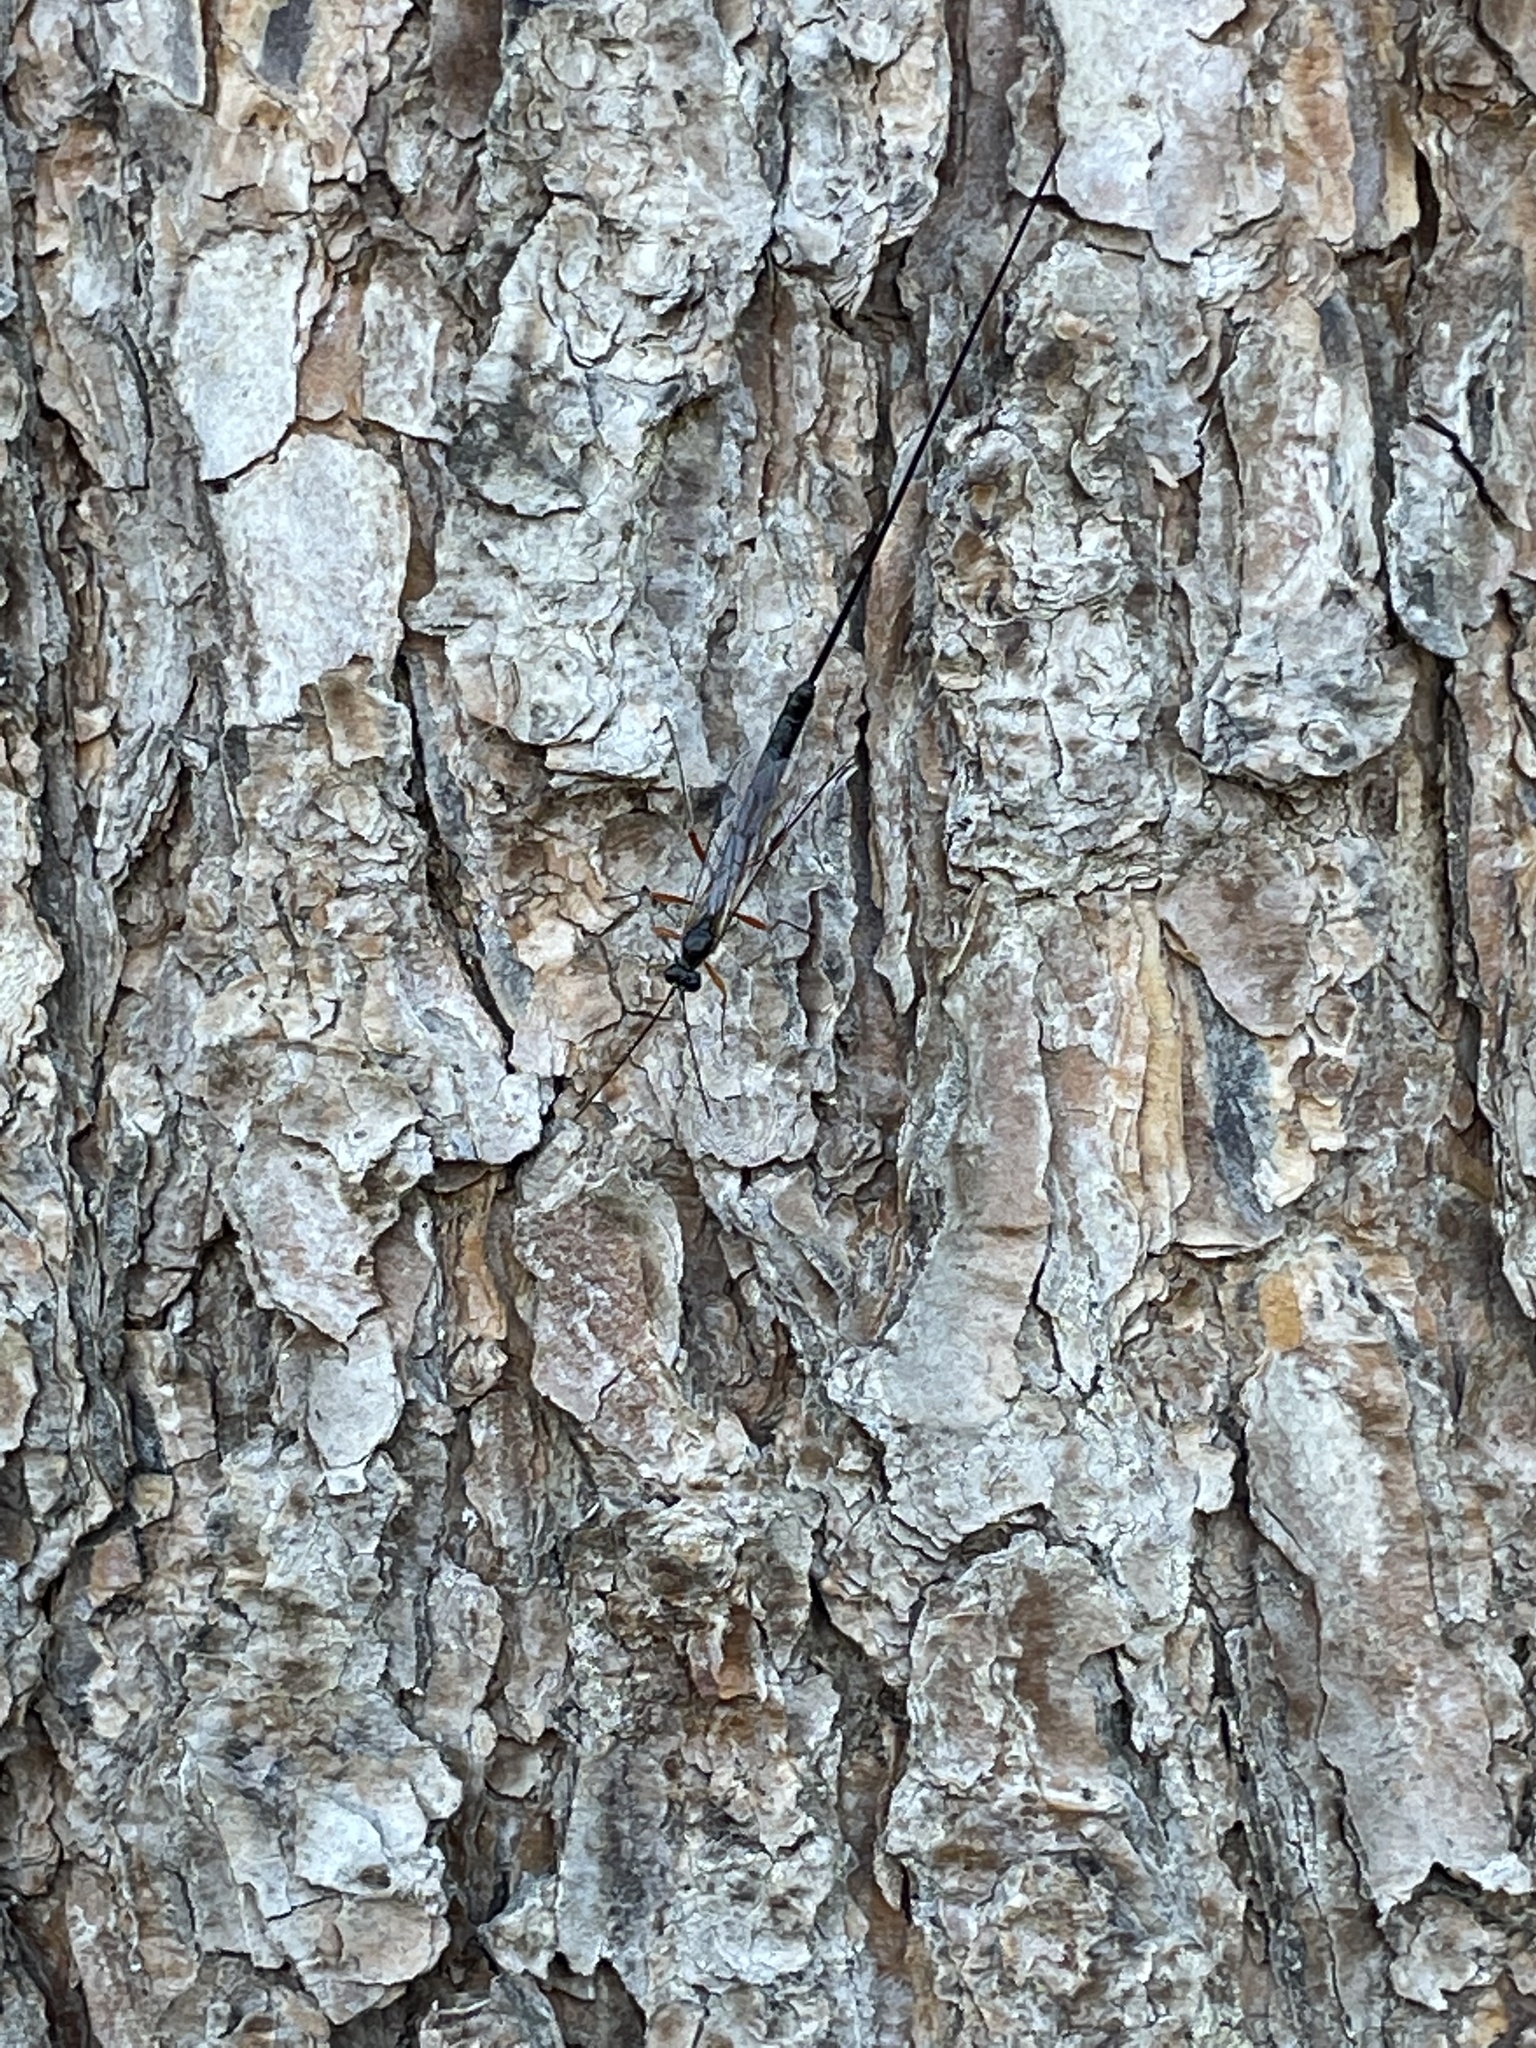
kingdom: Animalia
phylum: Arthropoda
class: Insecta
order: Hymenoptera
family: Ichneumonidae
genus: Rhyssa
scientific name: Rhyssa persuasoria
